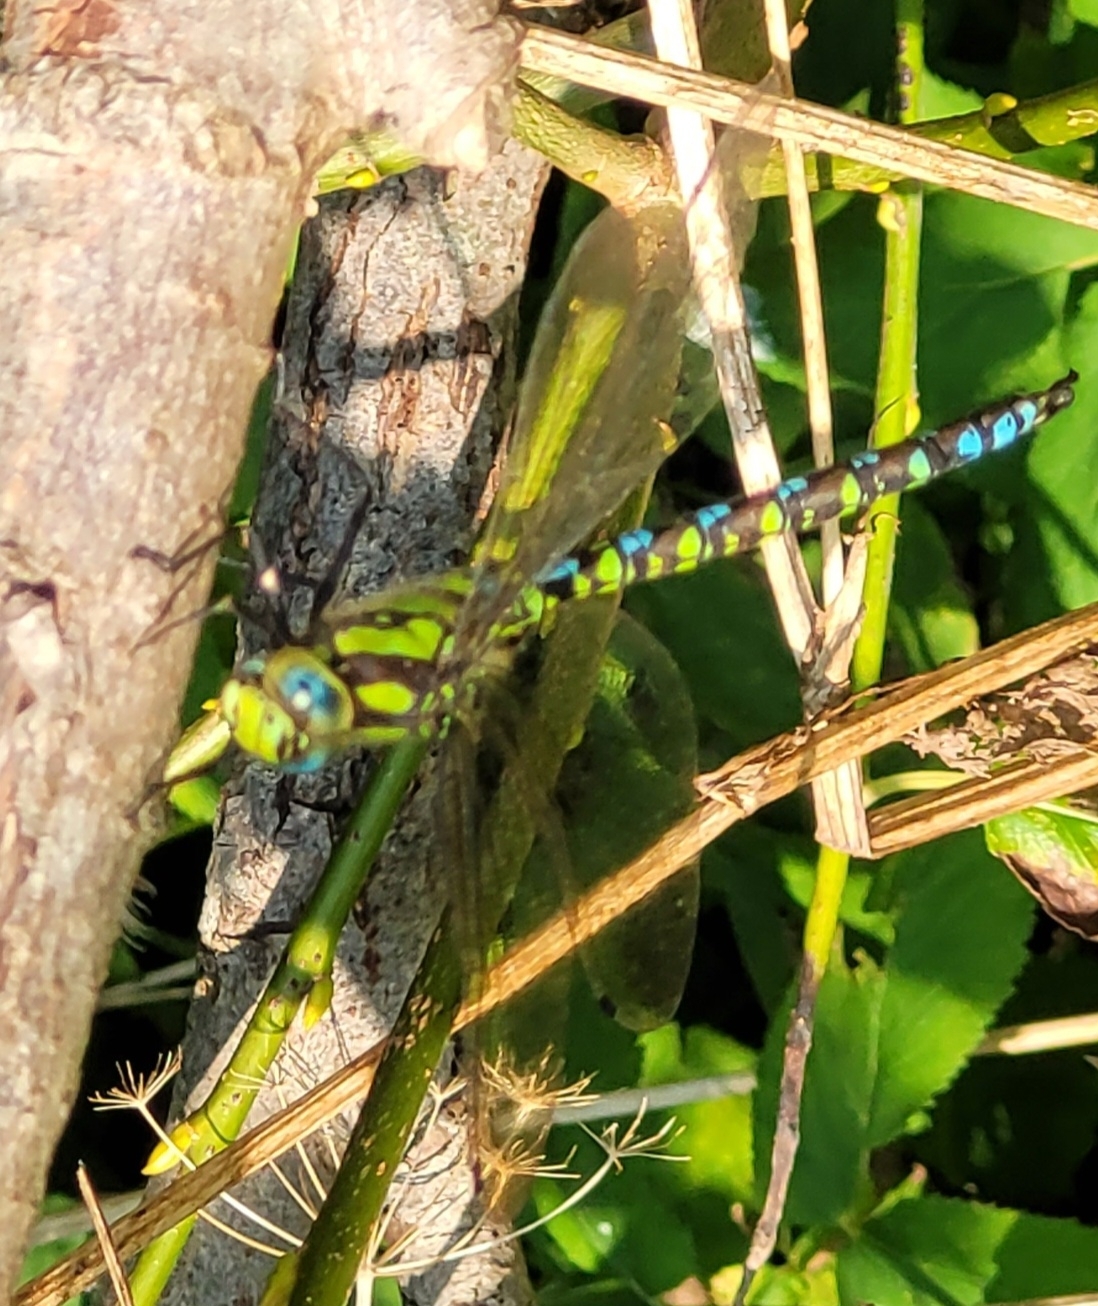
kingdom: Animalia
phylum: Arthropoda
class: Insecta
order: Odonata
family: Aeshnidae
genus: Aeshna
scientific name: Aeshna cyanea
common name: Southern hawker
